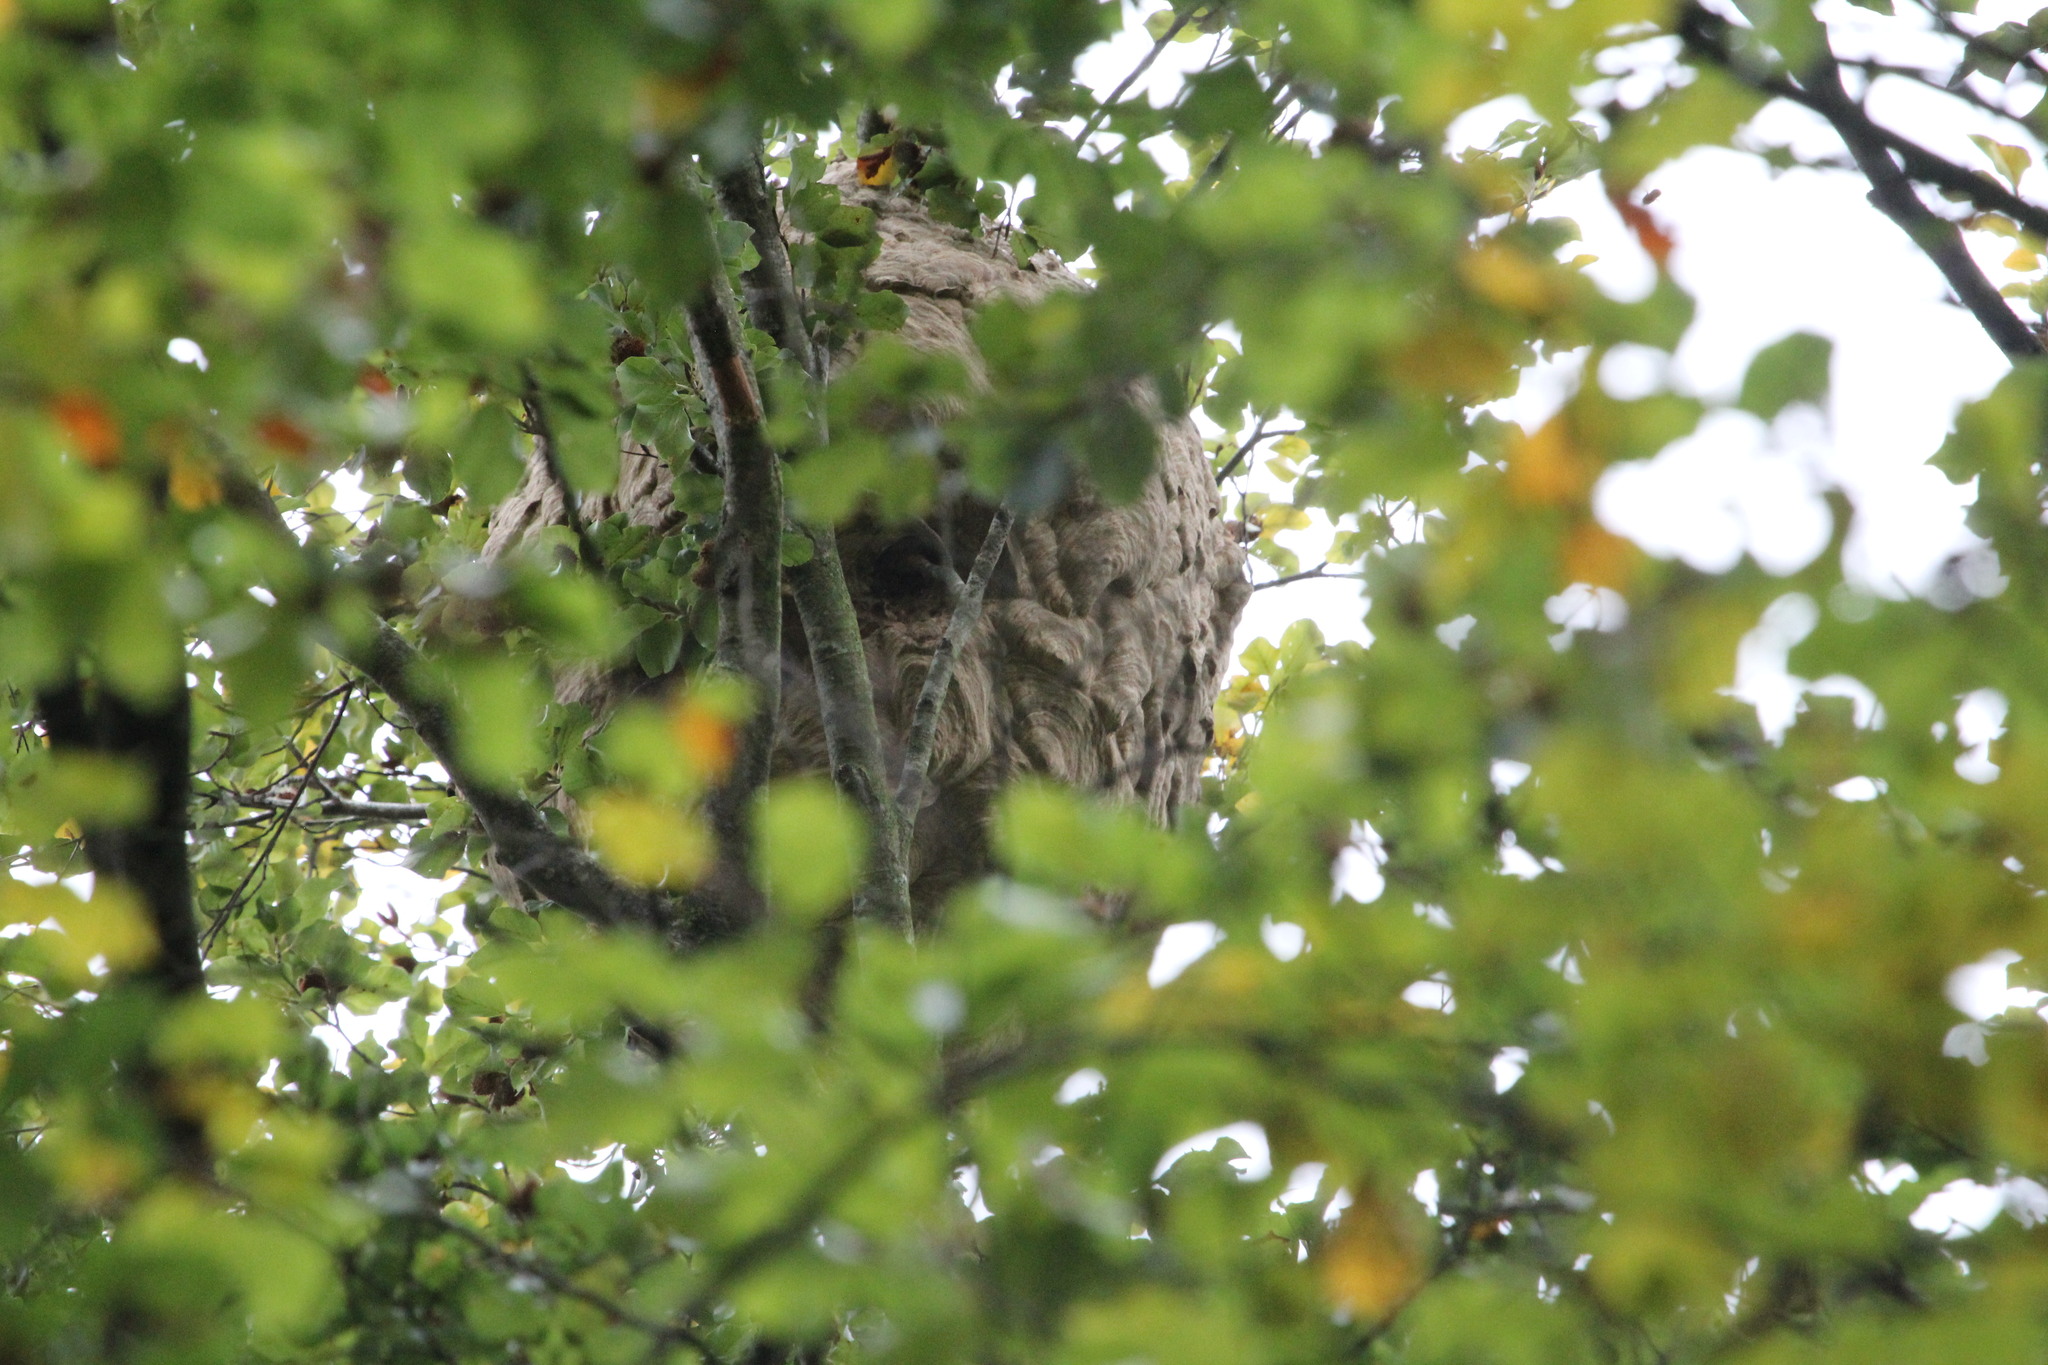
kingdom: Animalia
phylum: Arthropoda
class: Insecta
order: Hymenoptera
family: Vespidae
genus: Vespa
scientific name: Vespa velutina
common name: Asian hornet
